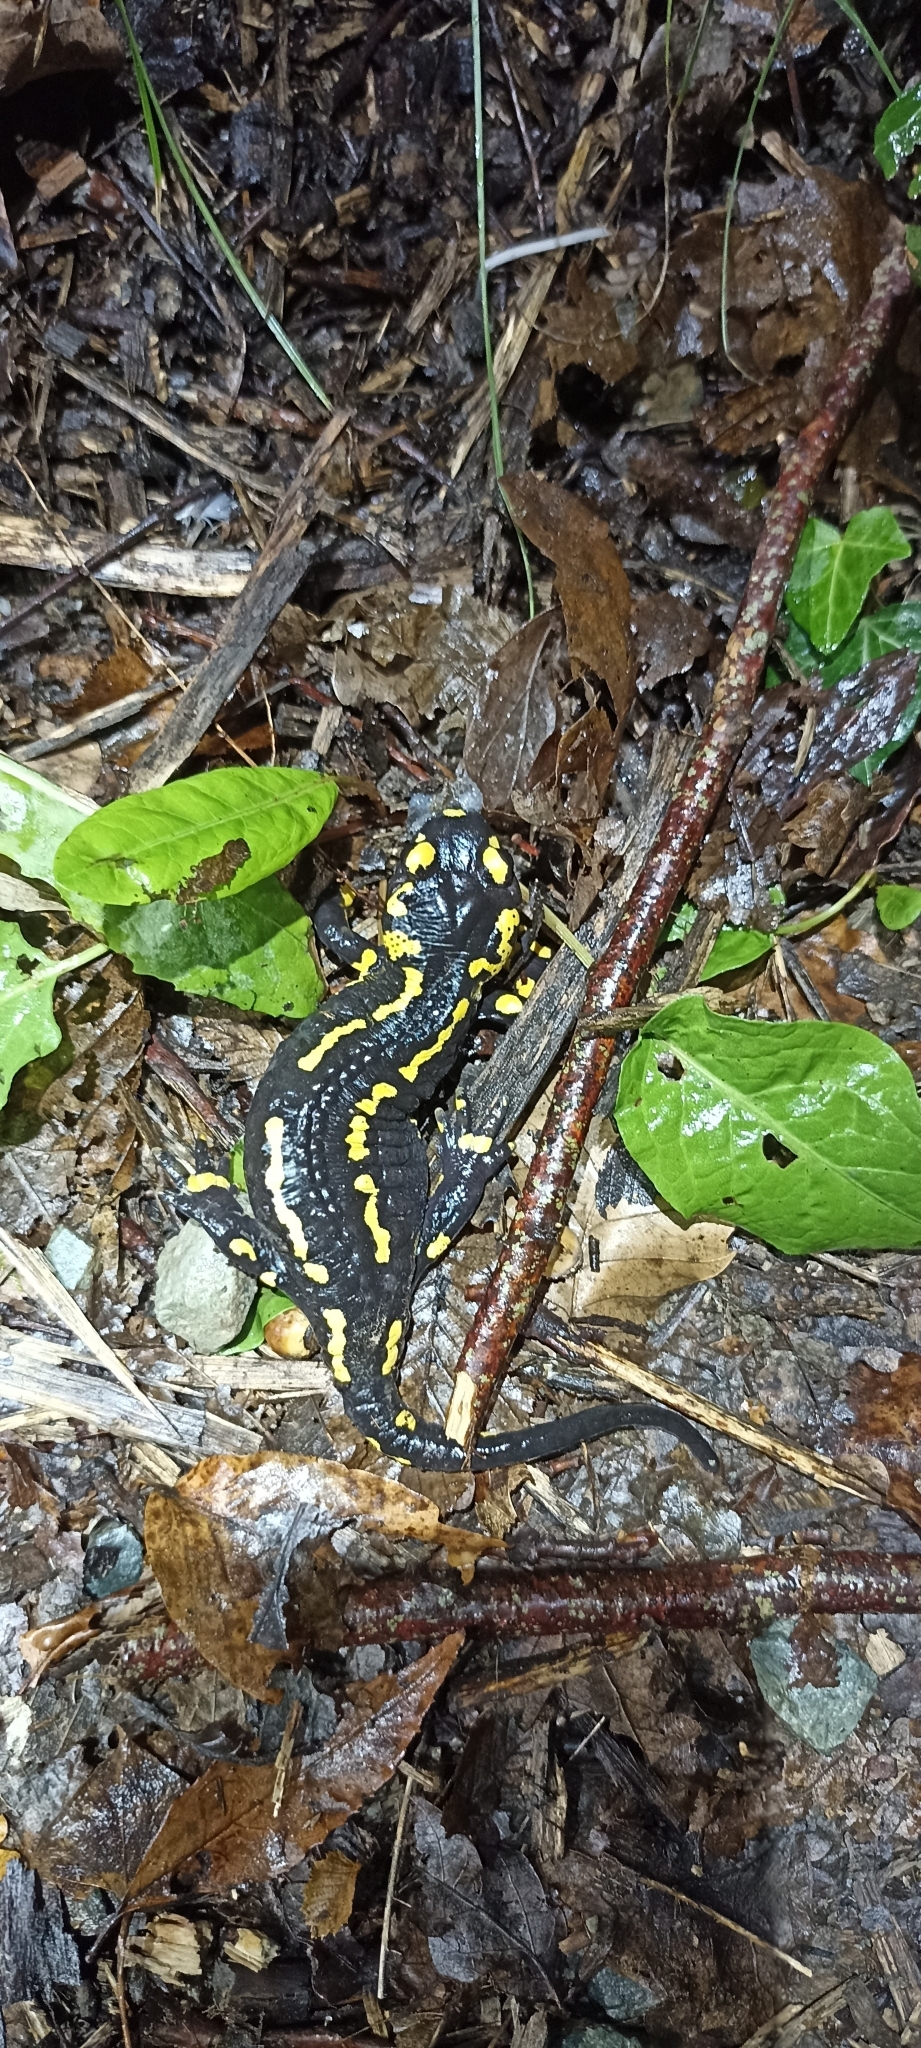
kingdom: Animalia
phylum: Chordata
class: Amphibia
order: Caudata
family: Salamandridae
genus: Salamandra
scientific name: Salamandra salamandra
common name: Fire salamander
